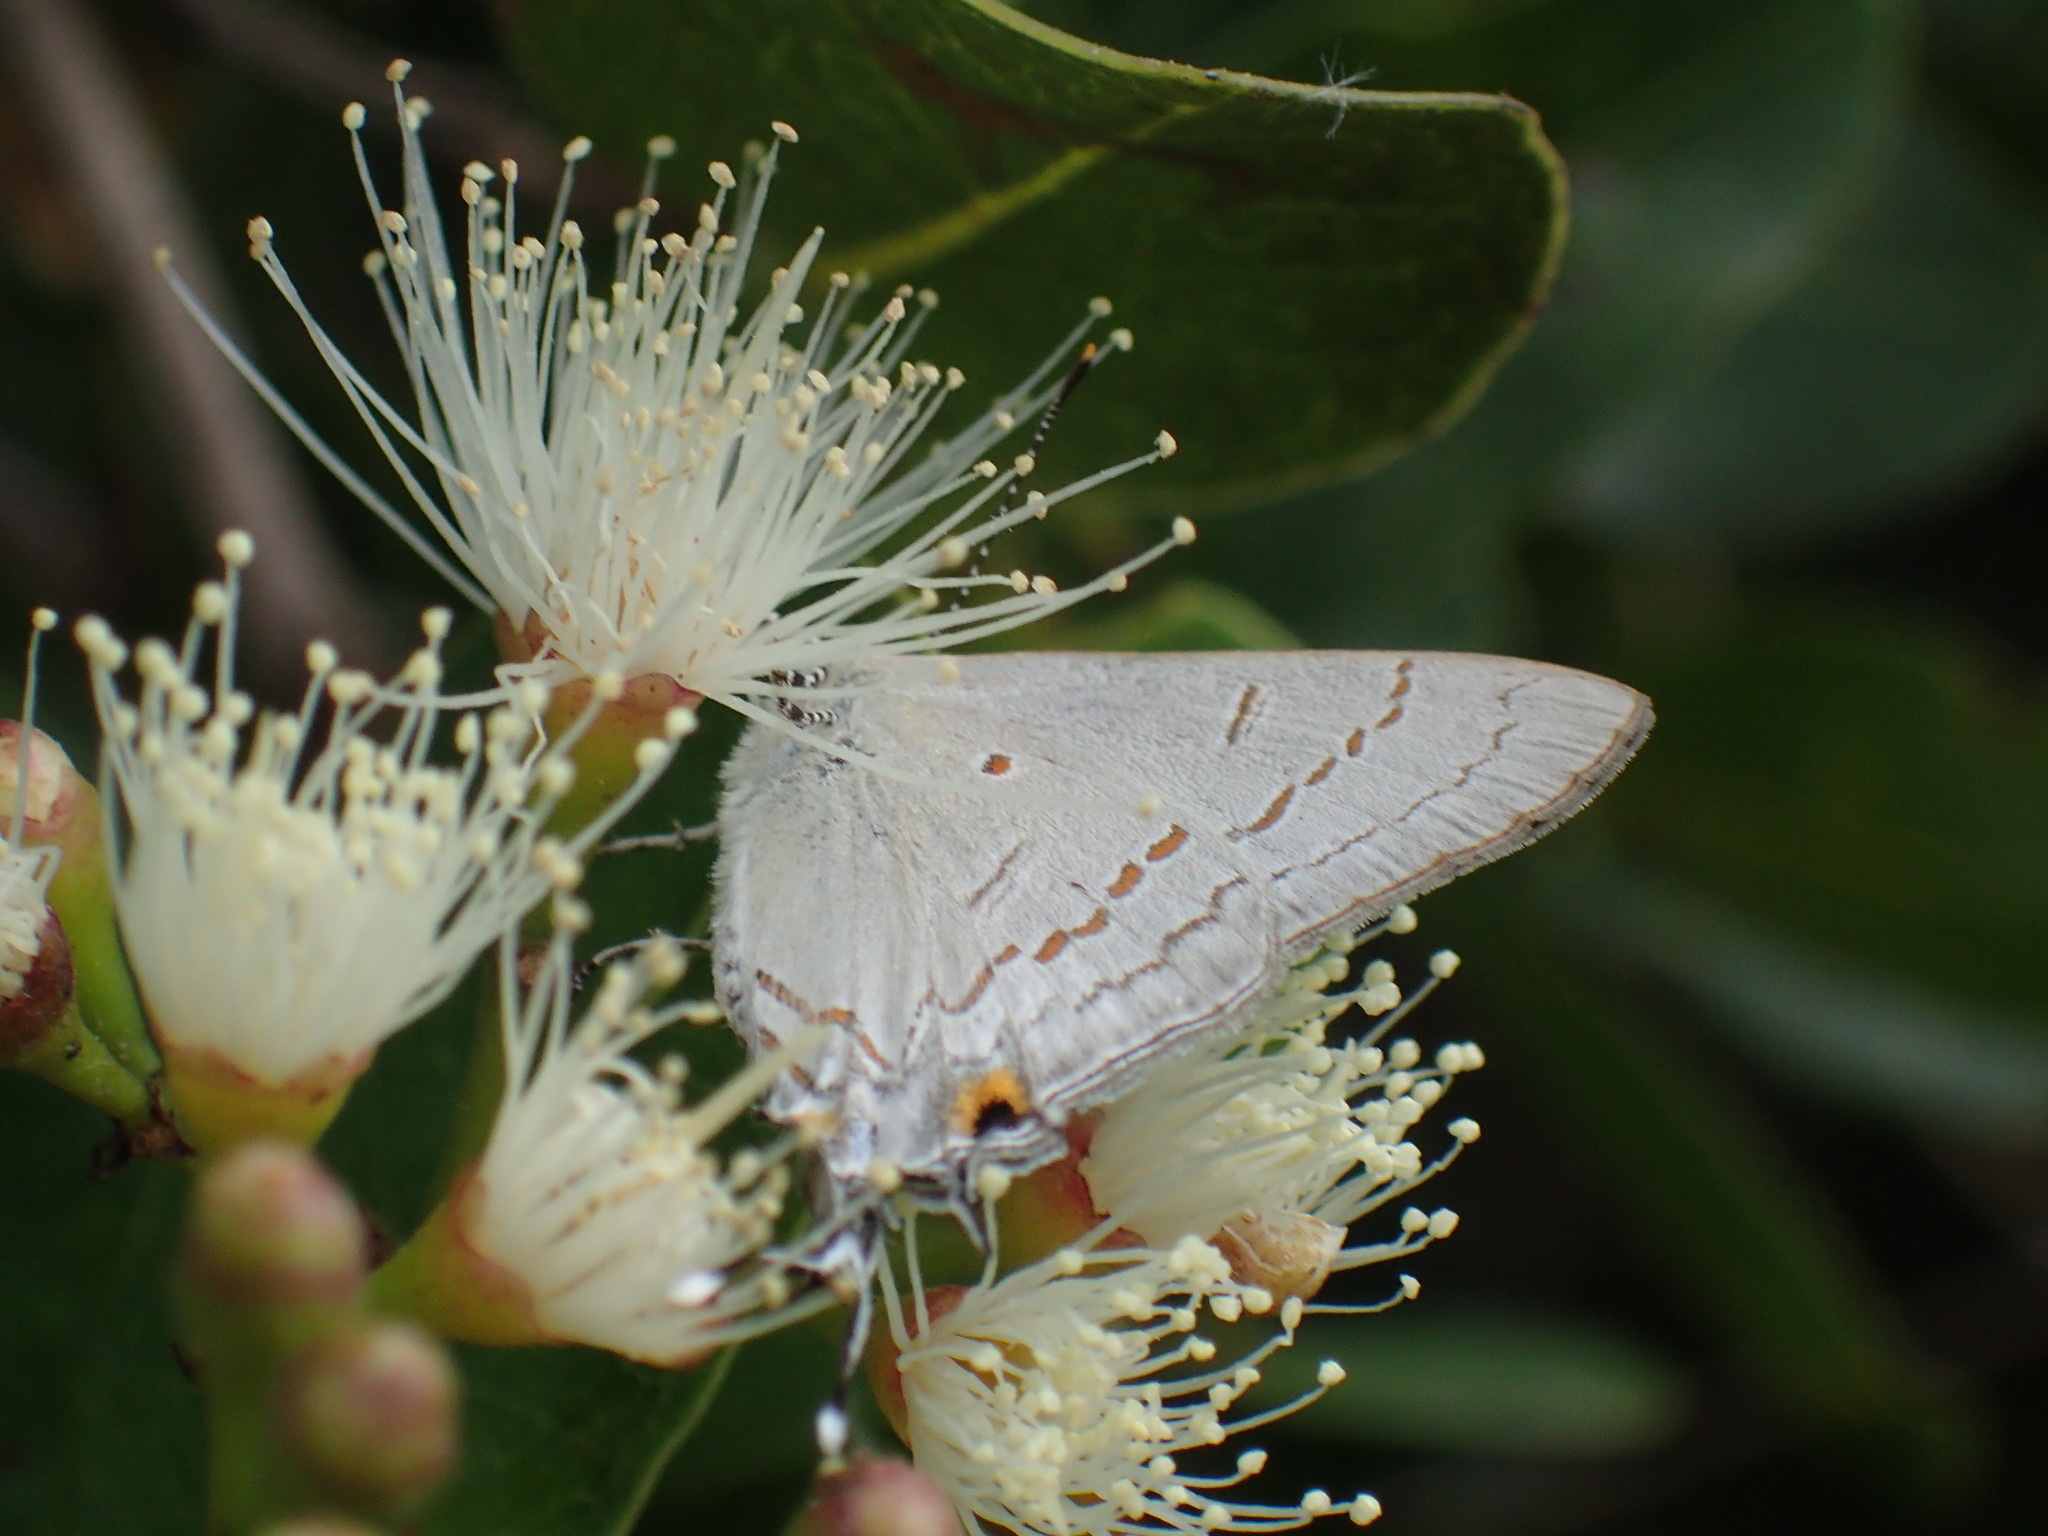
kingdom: Animalia
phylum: Arthropoda
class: Insecta
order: Lepidoptera
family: Lycaenidae
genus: Hypolycaena
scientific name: Hypolycaena philippus
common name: Common hairstreak
